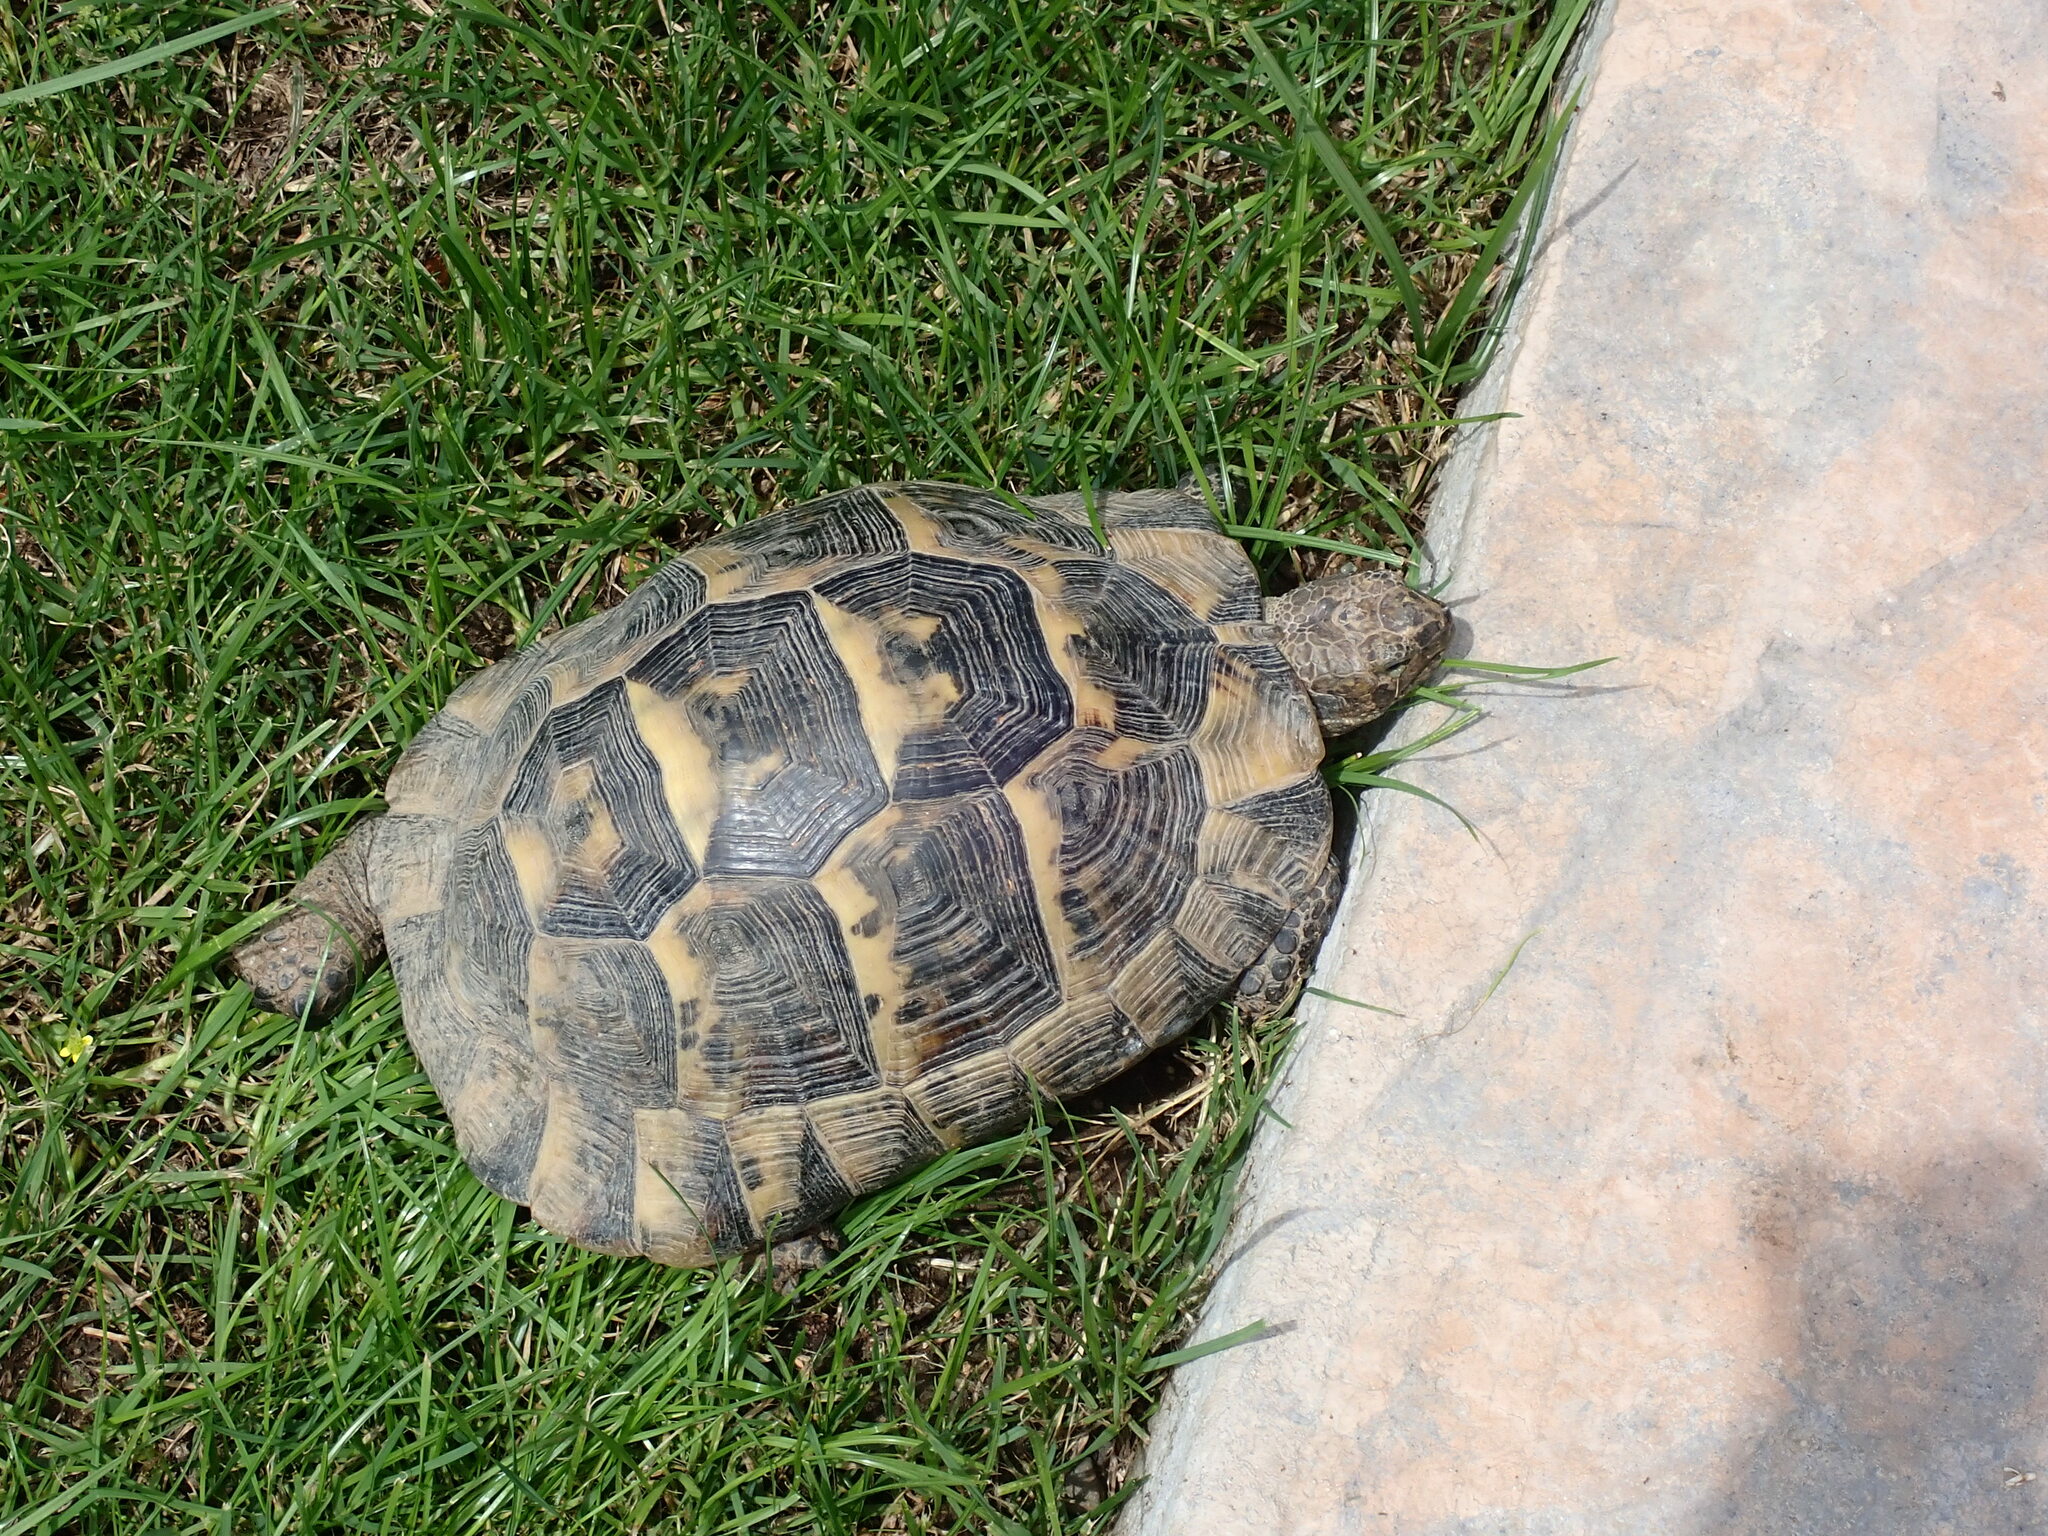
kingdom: Animalia
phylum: Chordata
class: Testudines
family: Testudinidae
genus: Testudo
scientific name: Testudo graeca
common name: Common tortoise
